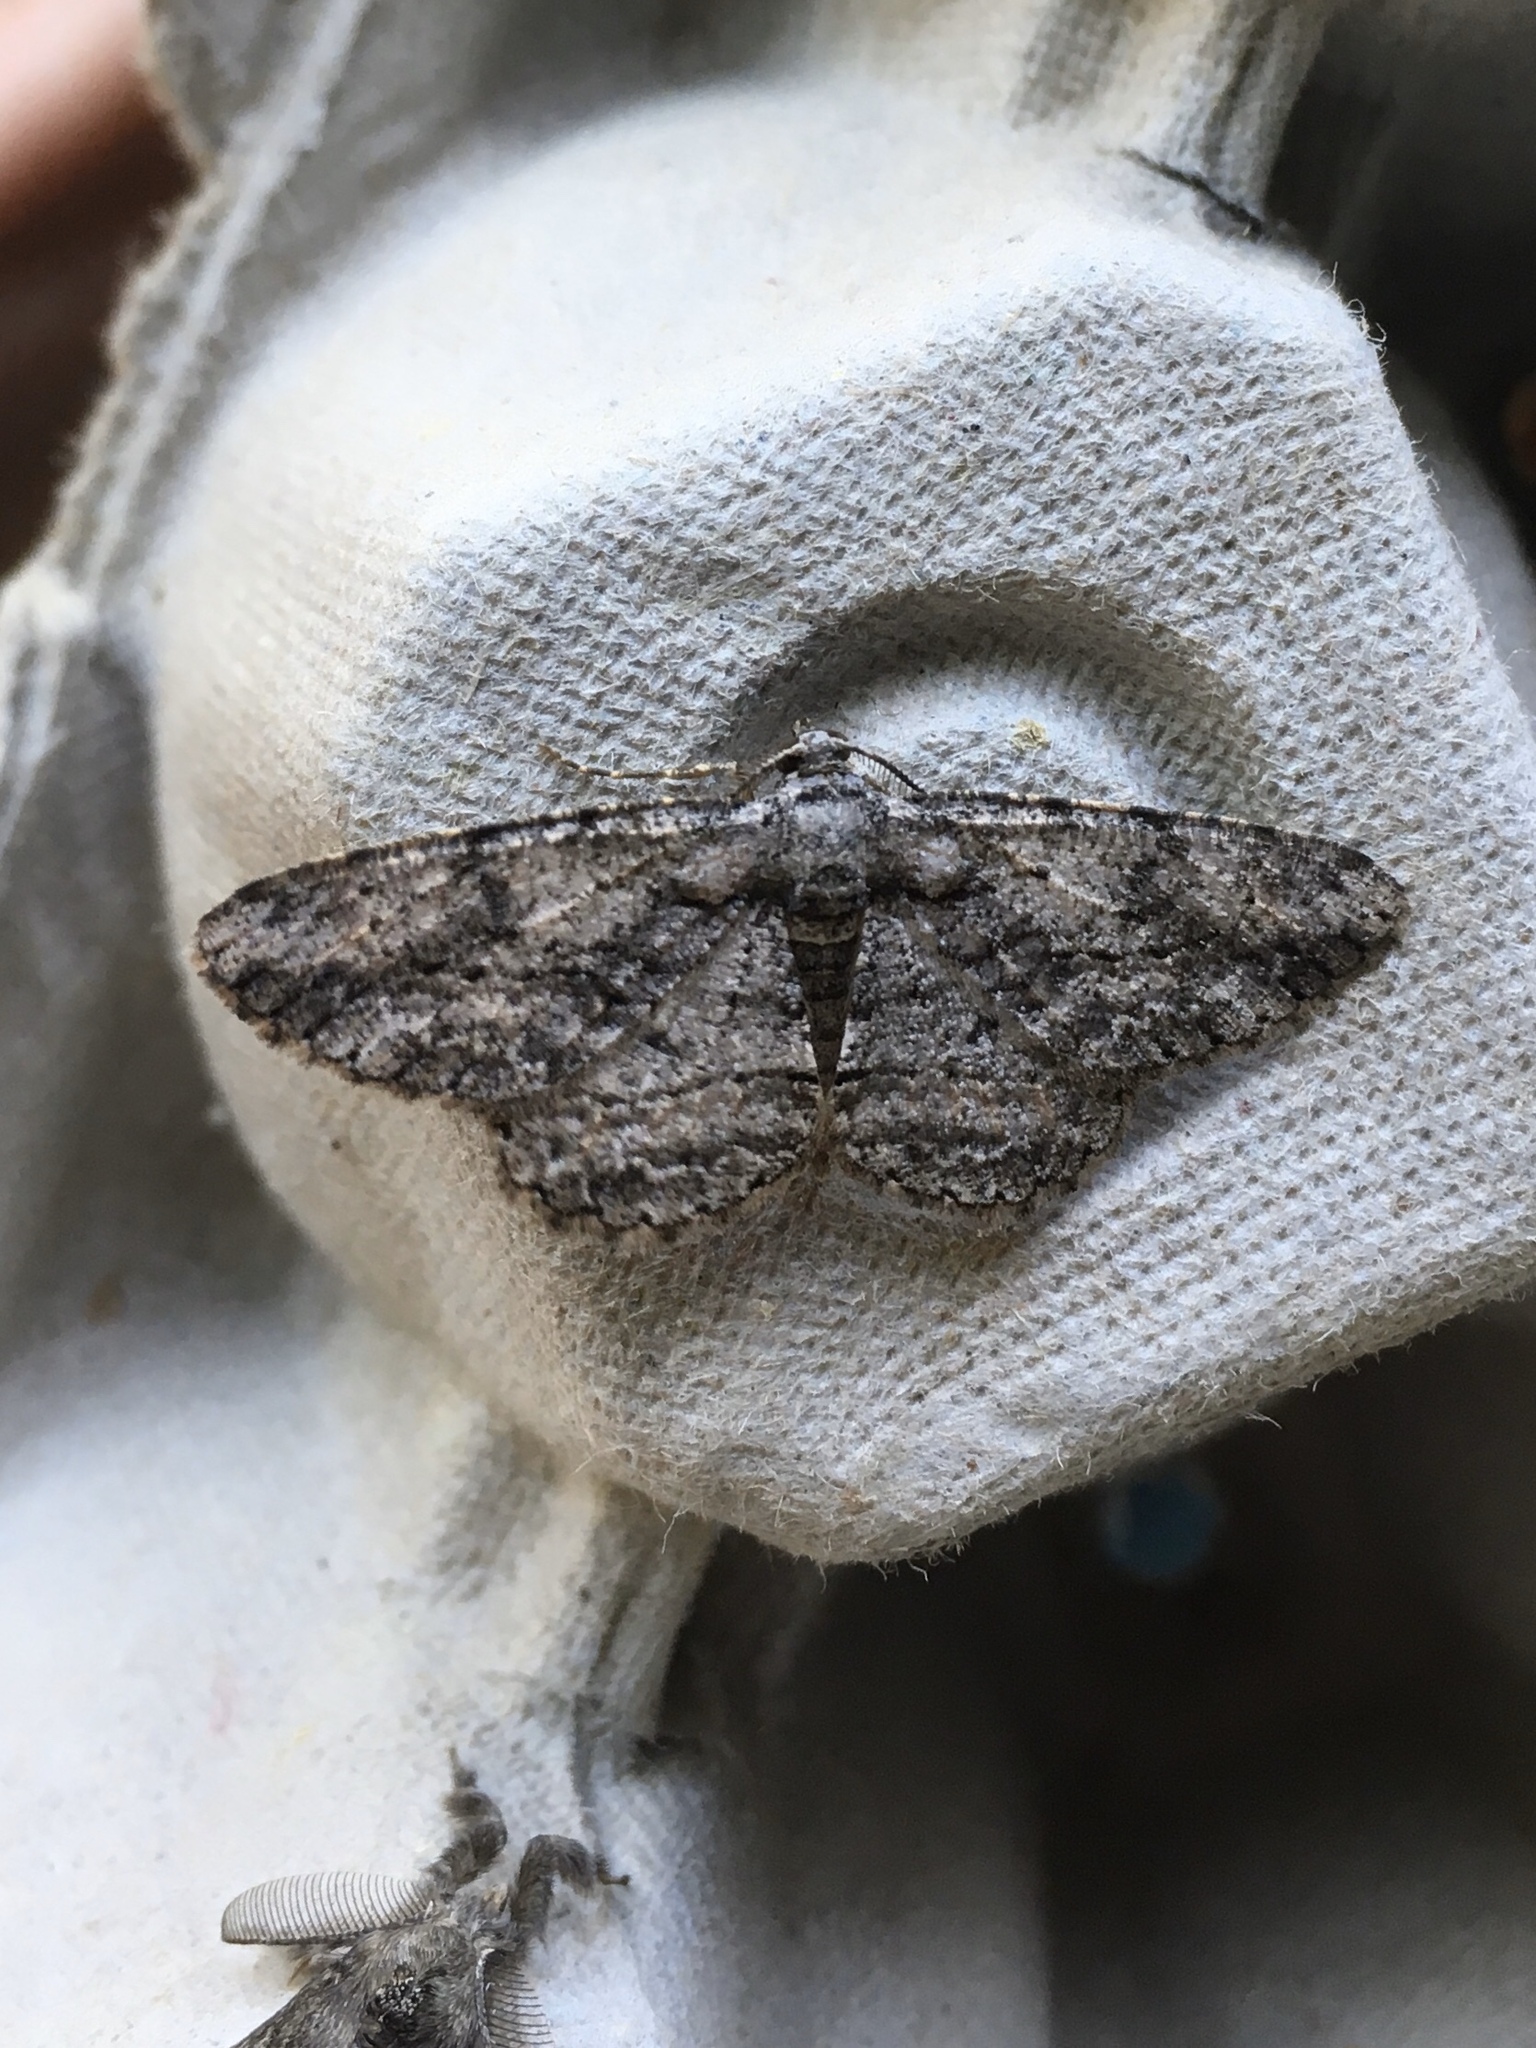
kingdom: Animalia
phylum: Arthropoda
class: Insecta
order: Lepidoptera
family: Geometridae
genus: Anavitrinella
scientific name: Anavitrinella pampinaria
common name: Common gray
